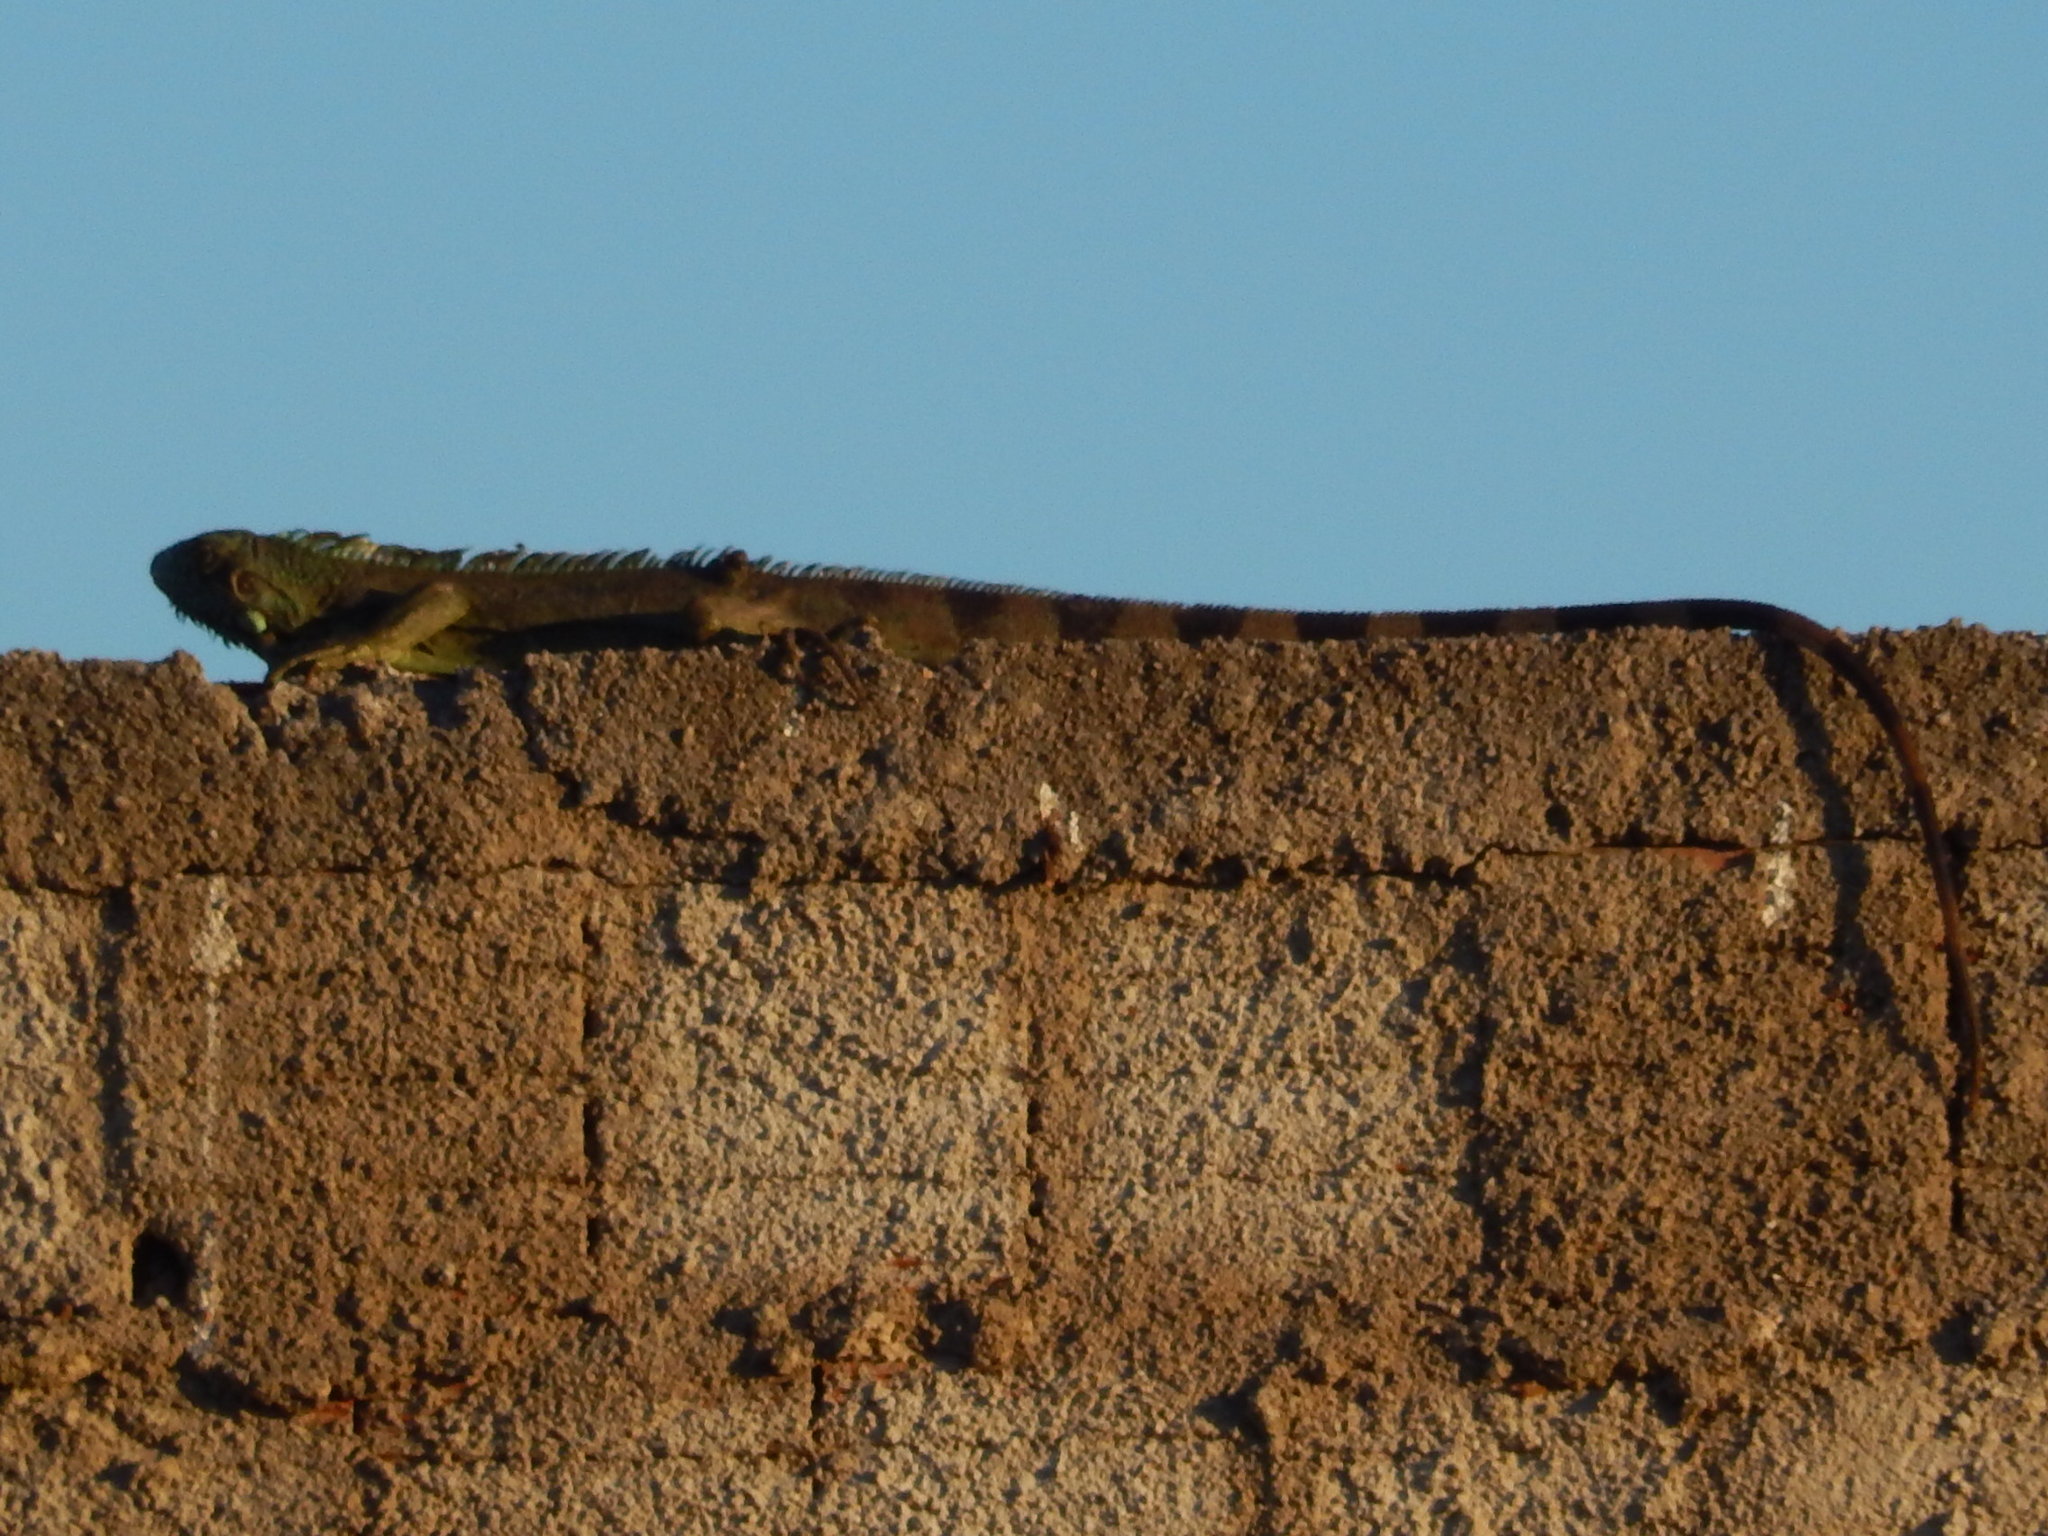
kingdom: Animalia
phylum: Chordata
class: Squamata
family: Iguanidae
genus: Iguana
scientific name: Iguana iguana
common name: Green iguana
